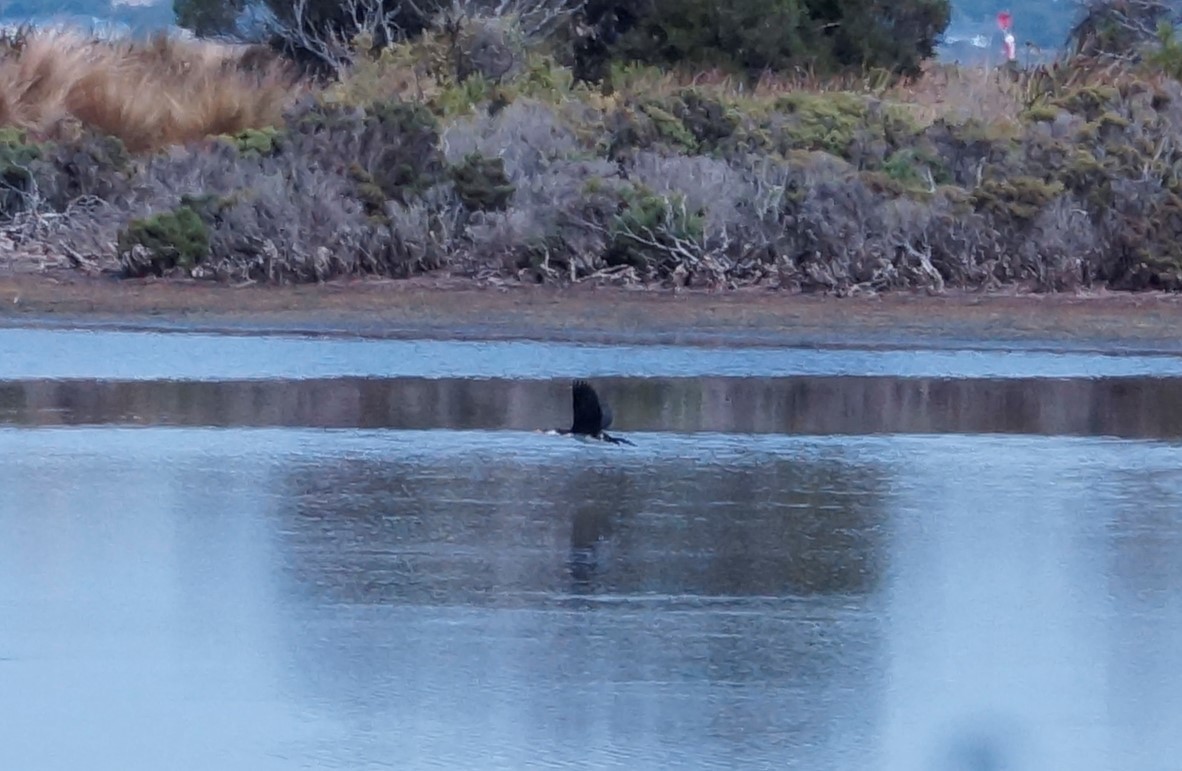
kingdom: Animalia
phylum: Chordata
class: Aves
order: Suliformes
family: Phalacrocoracidae
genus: Phalacrocorax
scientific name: Phalacrocorax varius
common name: Pied cormorant
